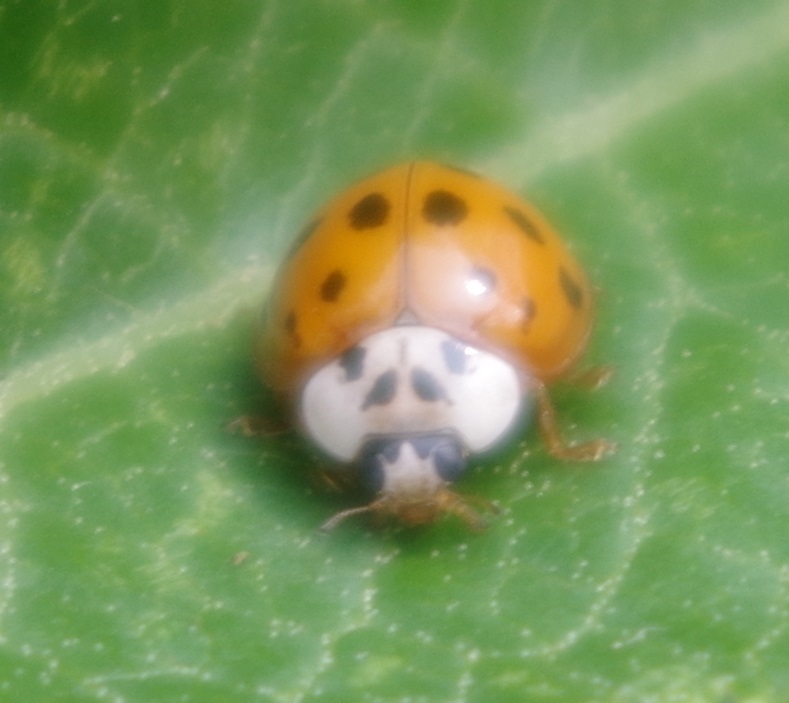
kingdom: Animalia
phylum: Arthropoda
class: Insecta
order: Coleoptera
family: Coccinellidae
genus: Harmonia
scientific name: Harmonia axyridis
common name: Harlequin ladybird
